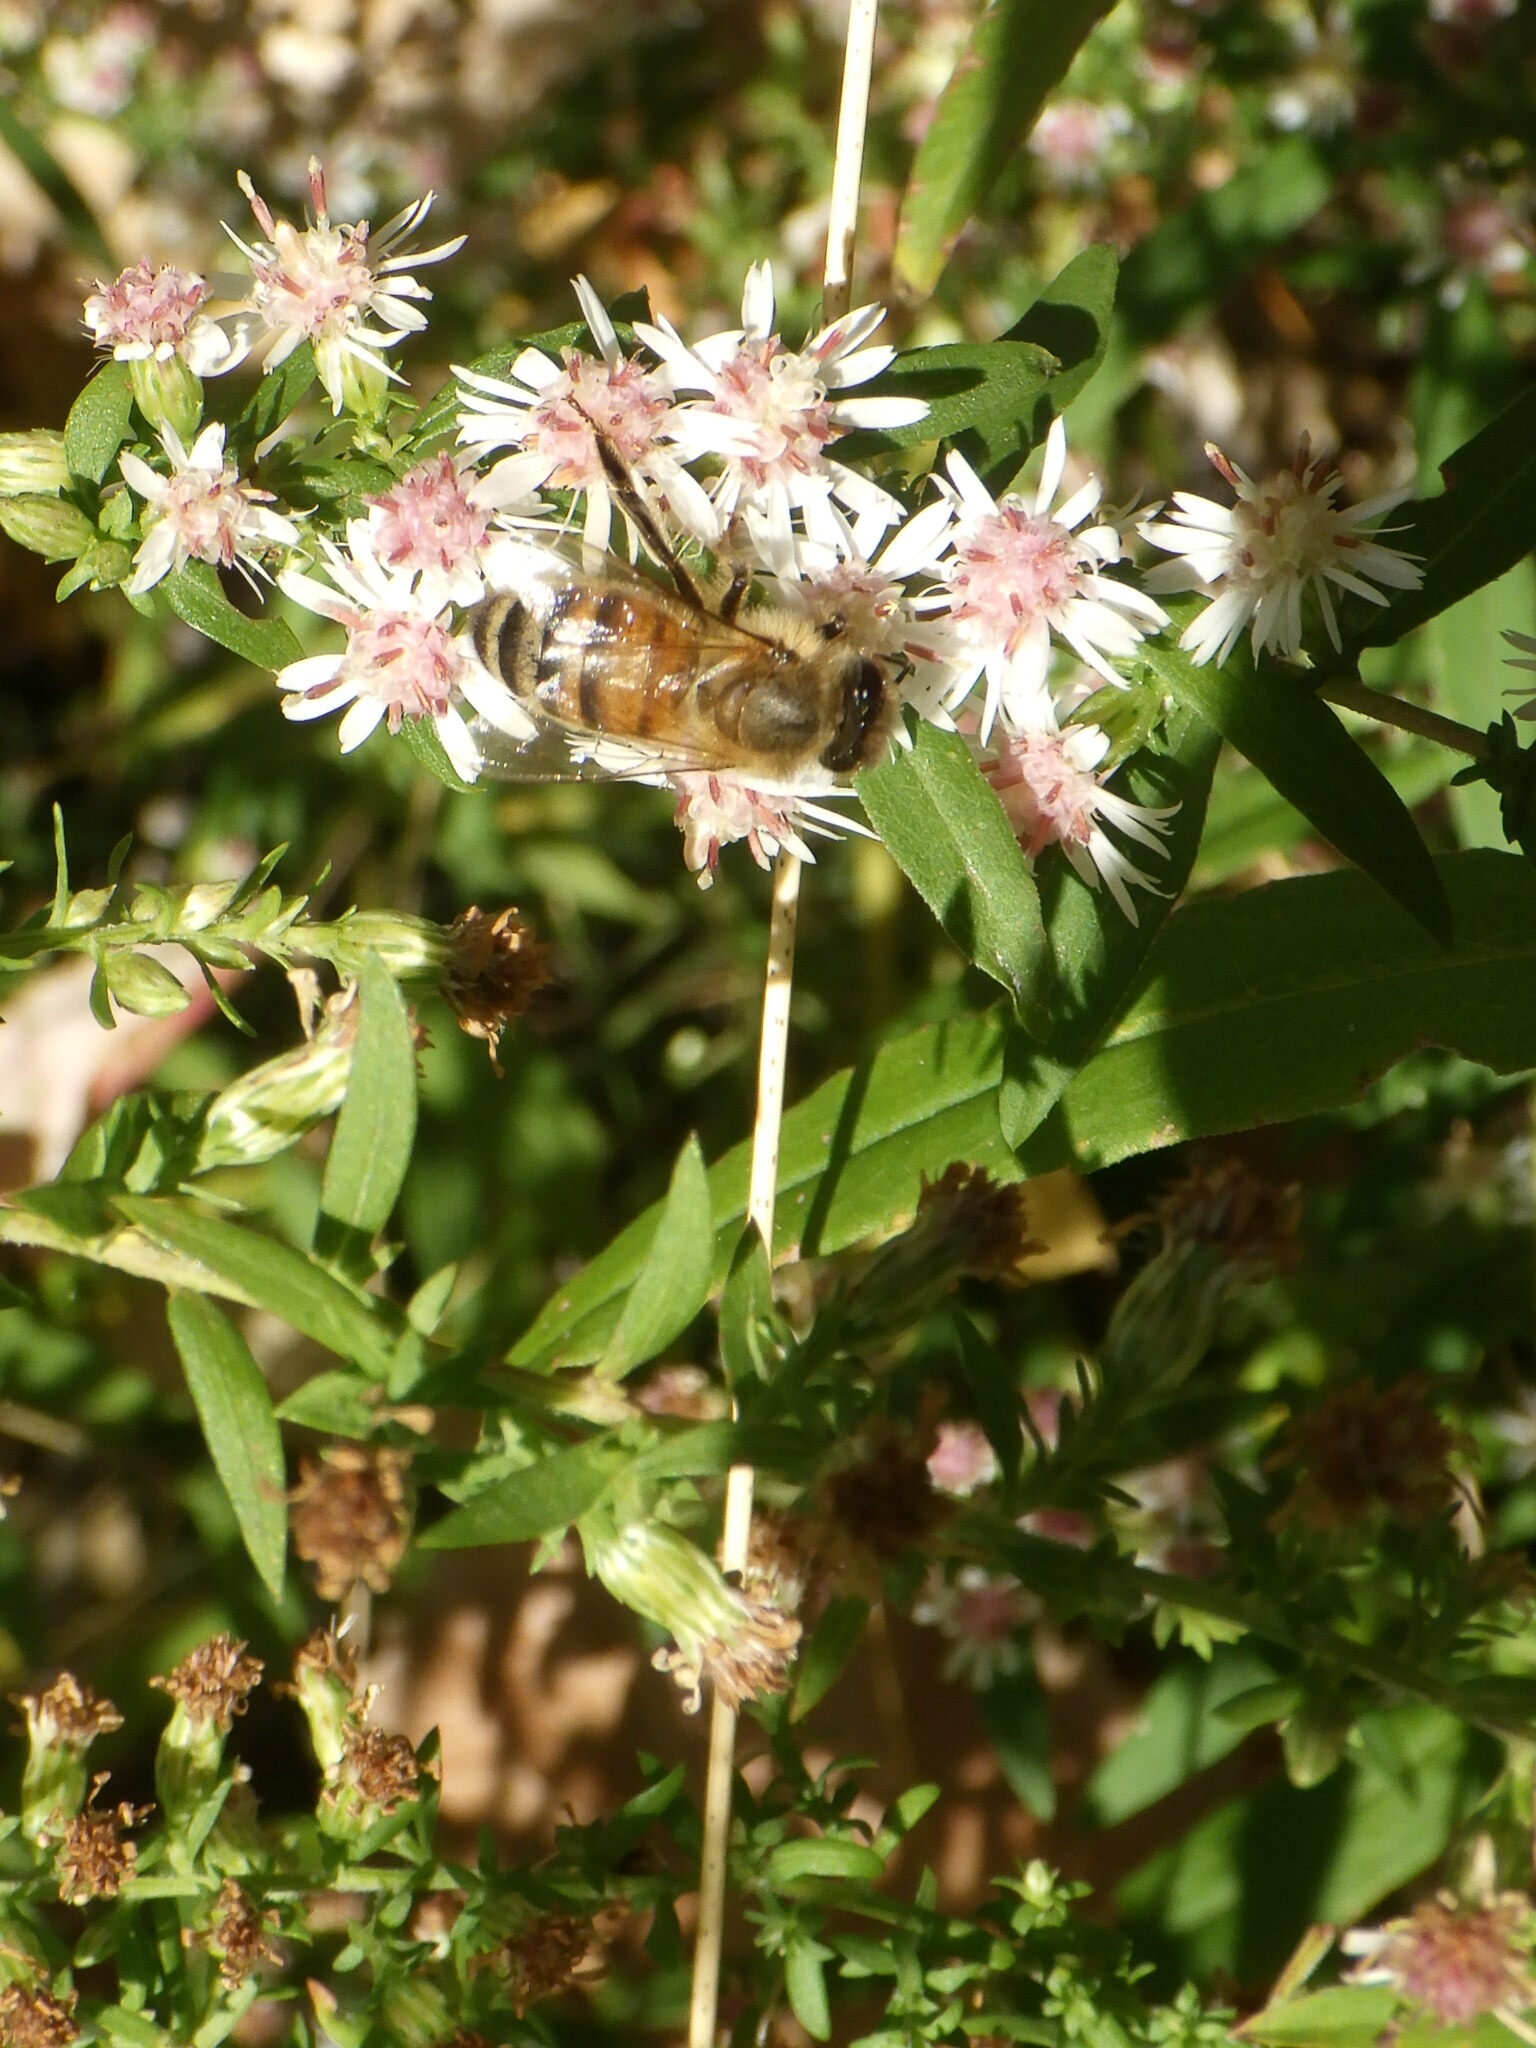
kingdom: Animalia
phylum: Arthropoda
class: Insecta
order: Hymenoptera
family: Apidae
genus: Apis
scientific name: Apis mellifera
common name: Honey bee
